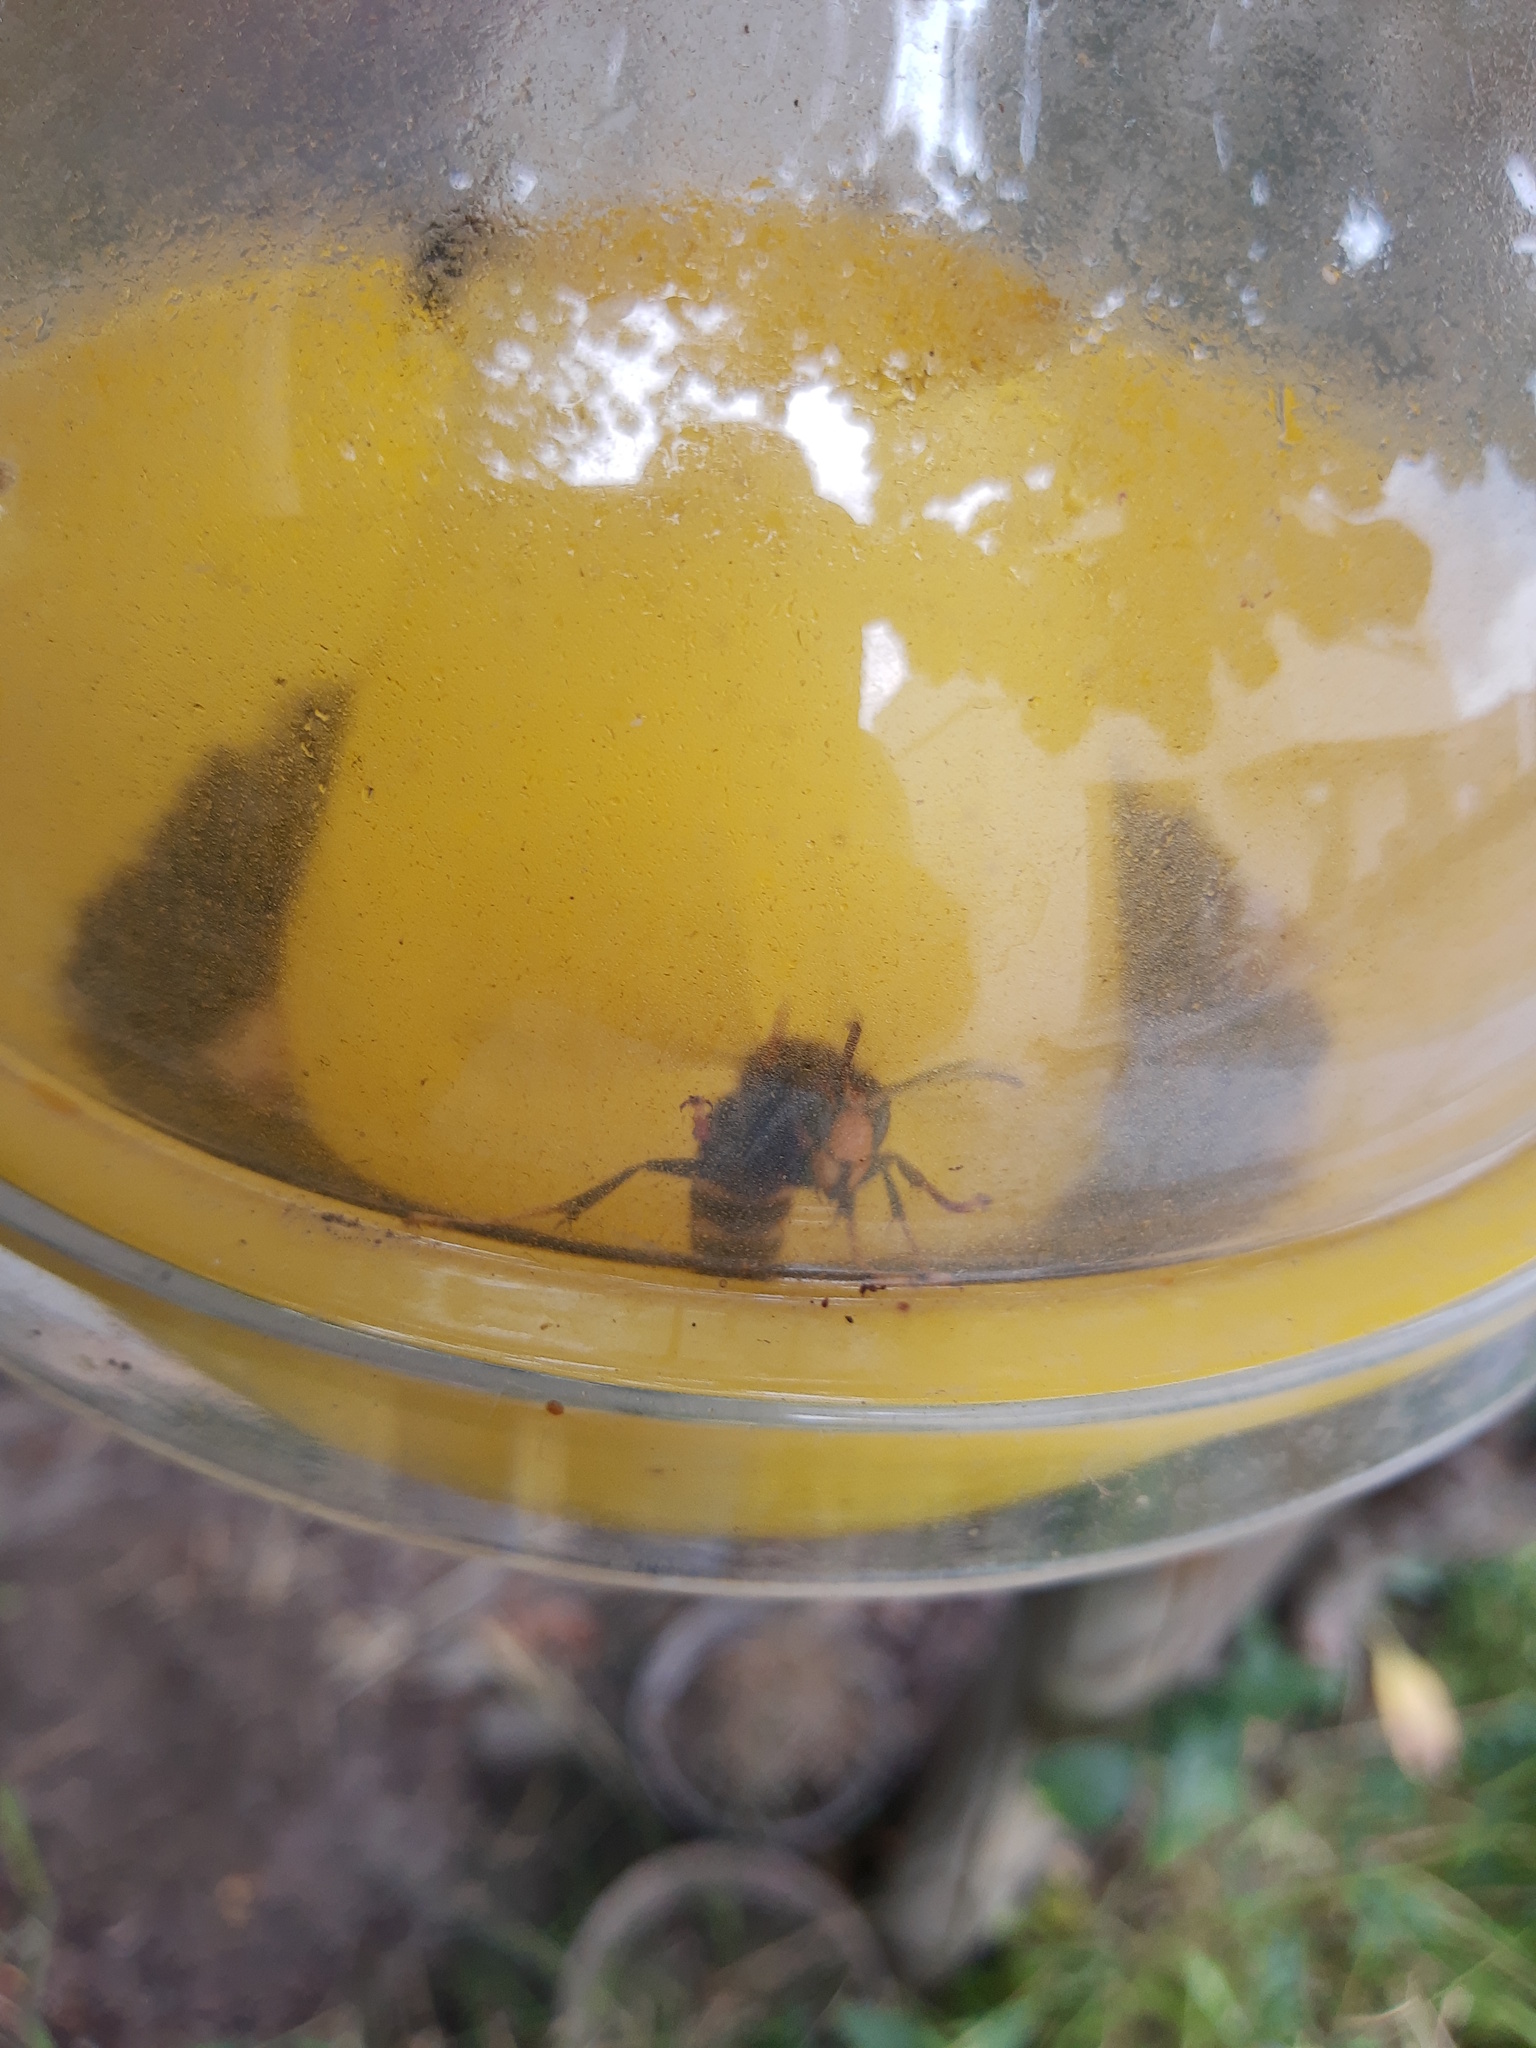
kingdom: Animalia
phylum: Arthropoda
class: Insecta
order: Hymenoptera
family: Vespidae
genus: Vespa
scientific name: Vespa velutina
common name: Asian hornet
